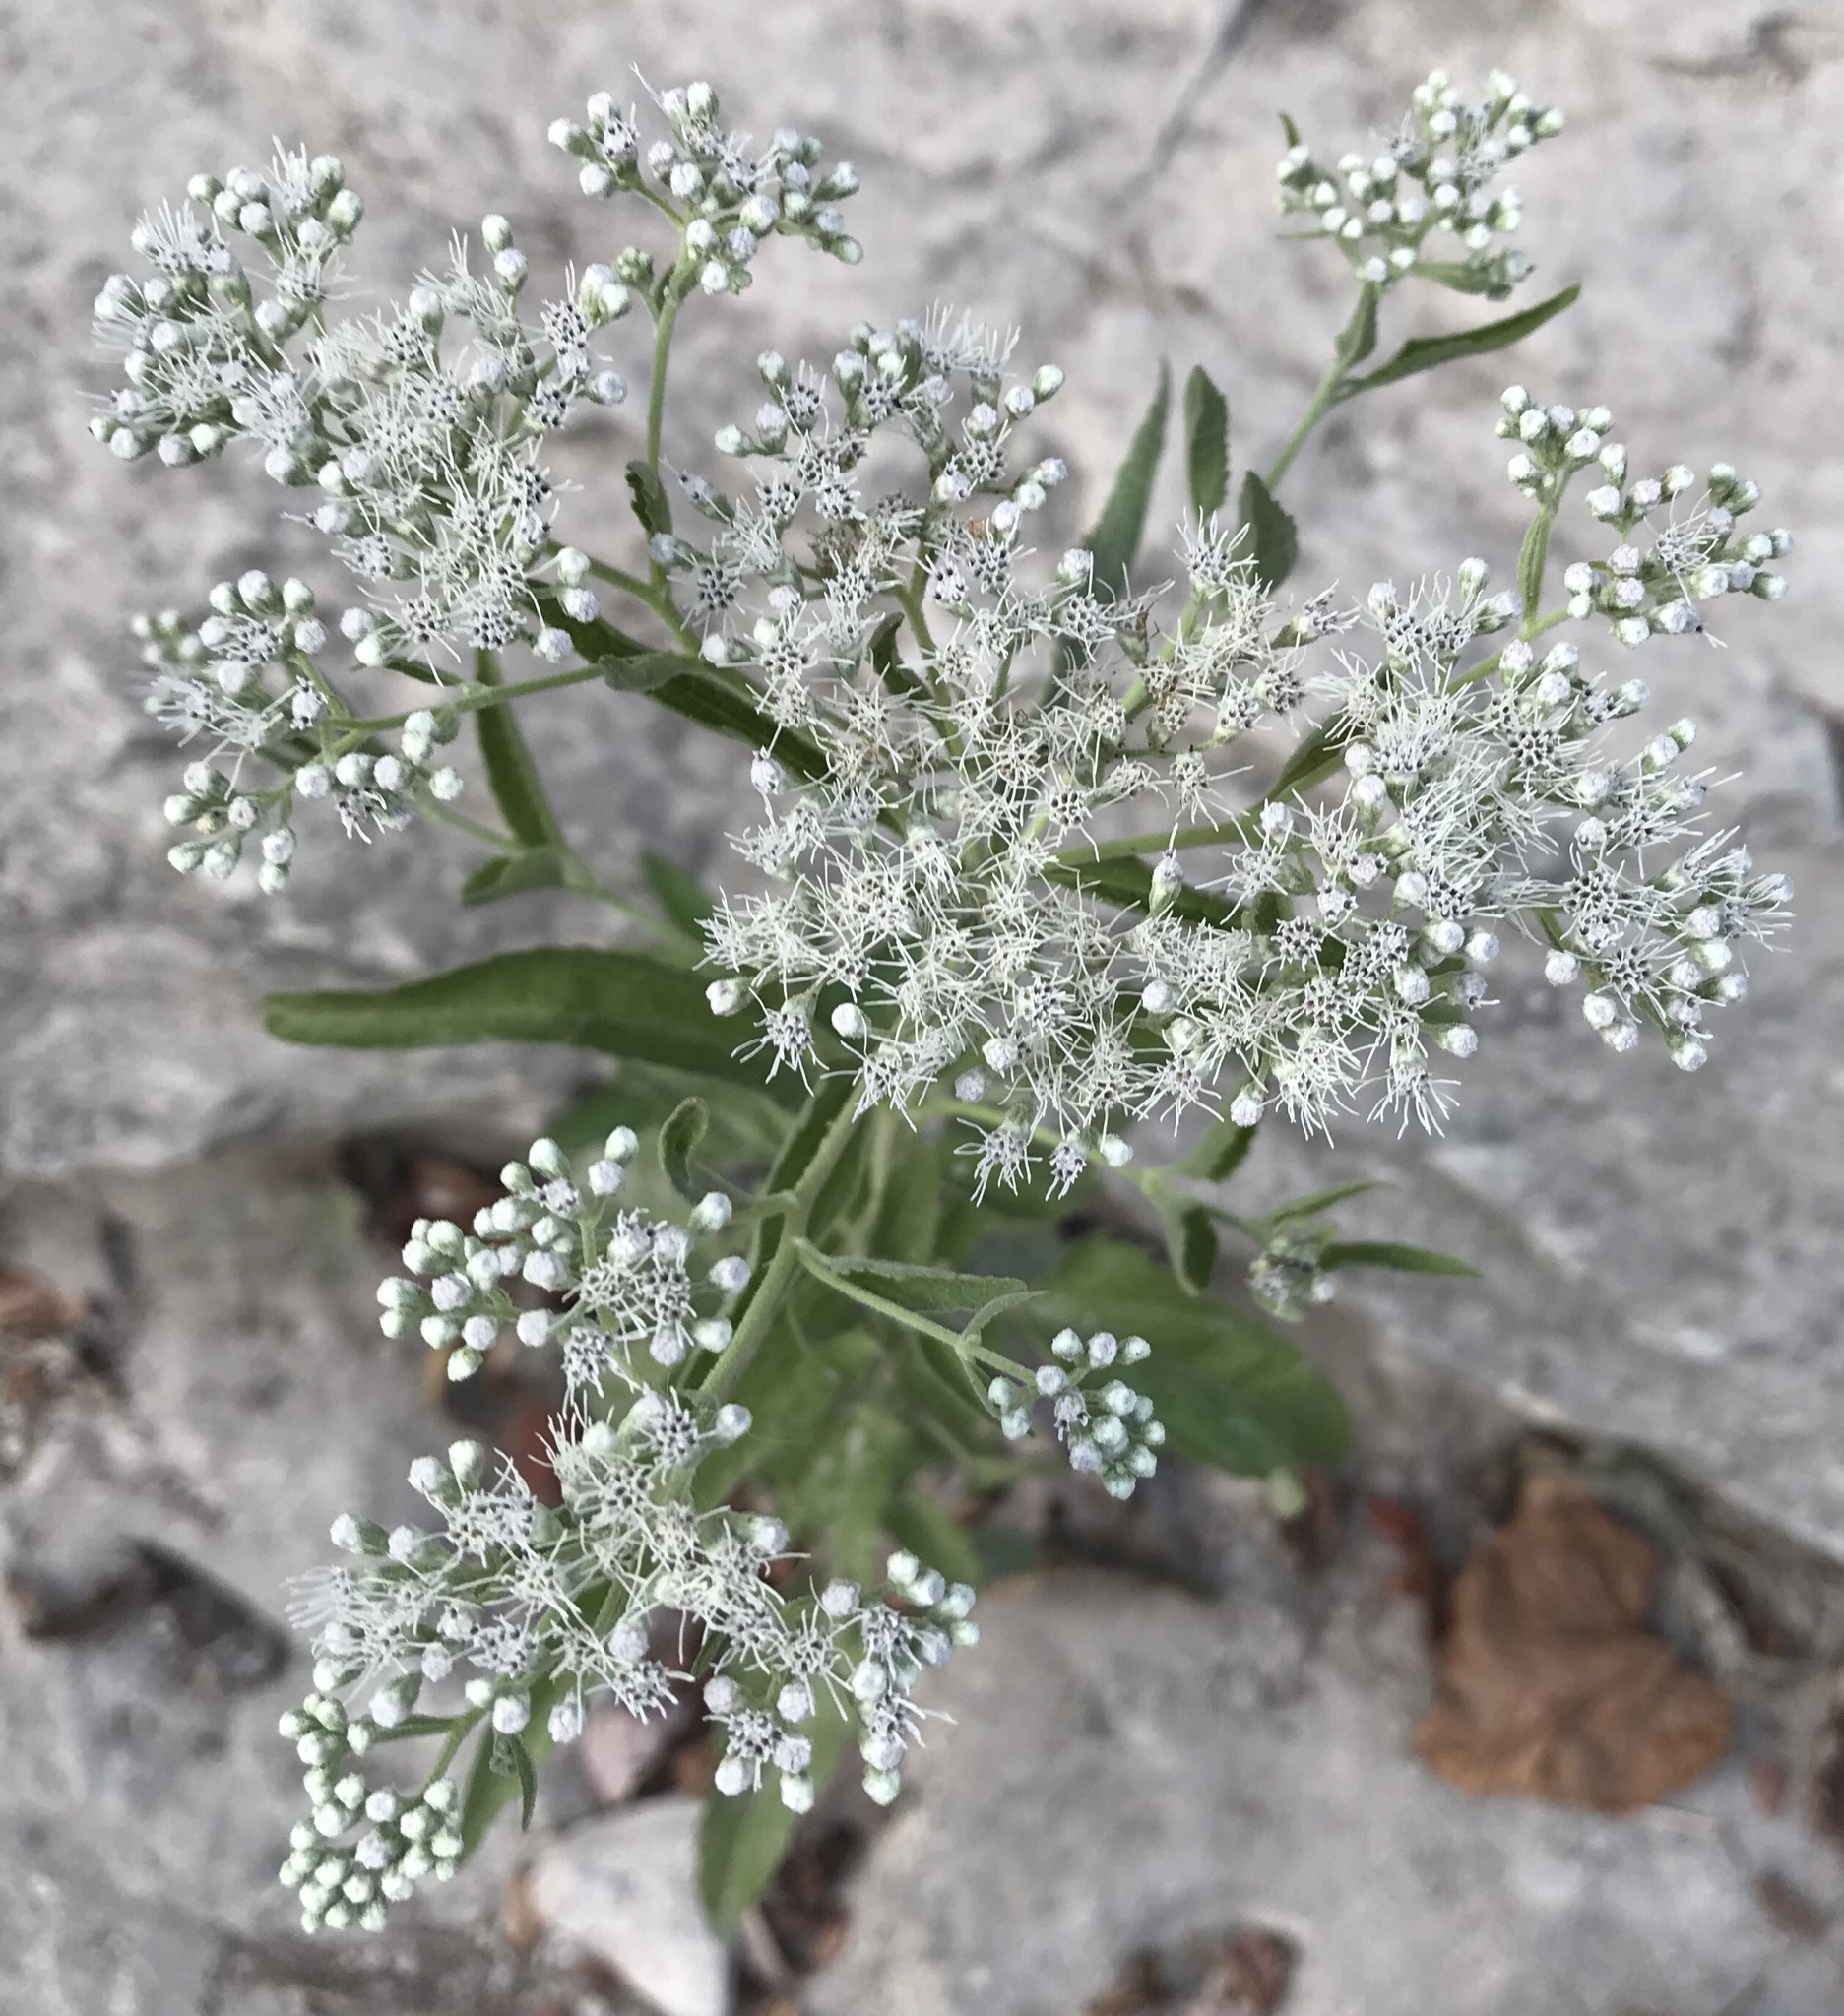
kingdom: Plantae
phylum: Tracheophyta
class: Magnoliopsida
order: Asterales
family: Asteraceae
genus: Eupatorium
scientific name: Eupatorium serotinum
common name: Late boneset
